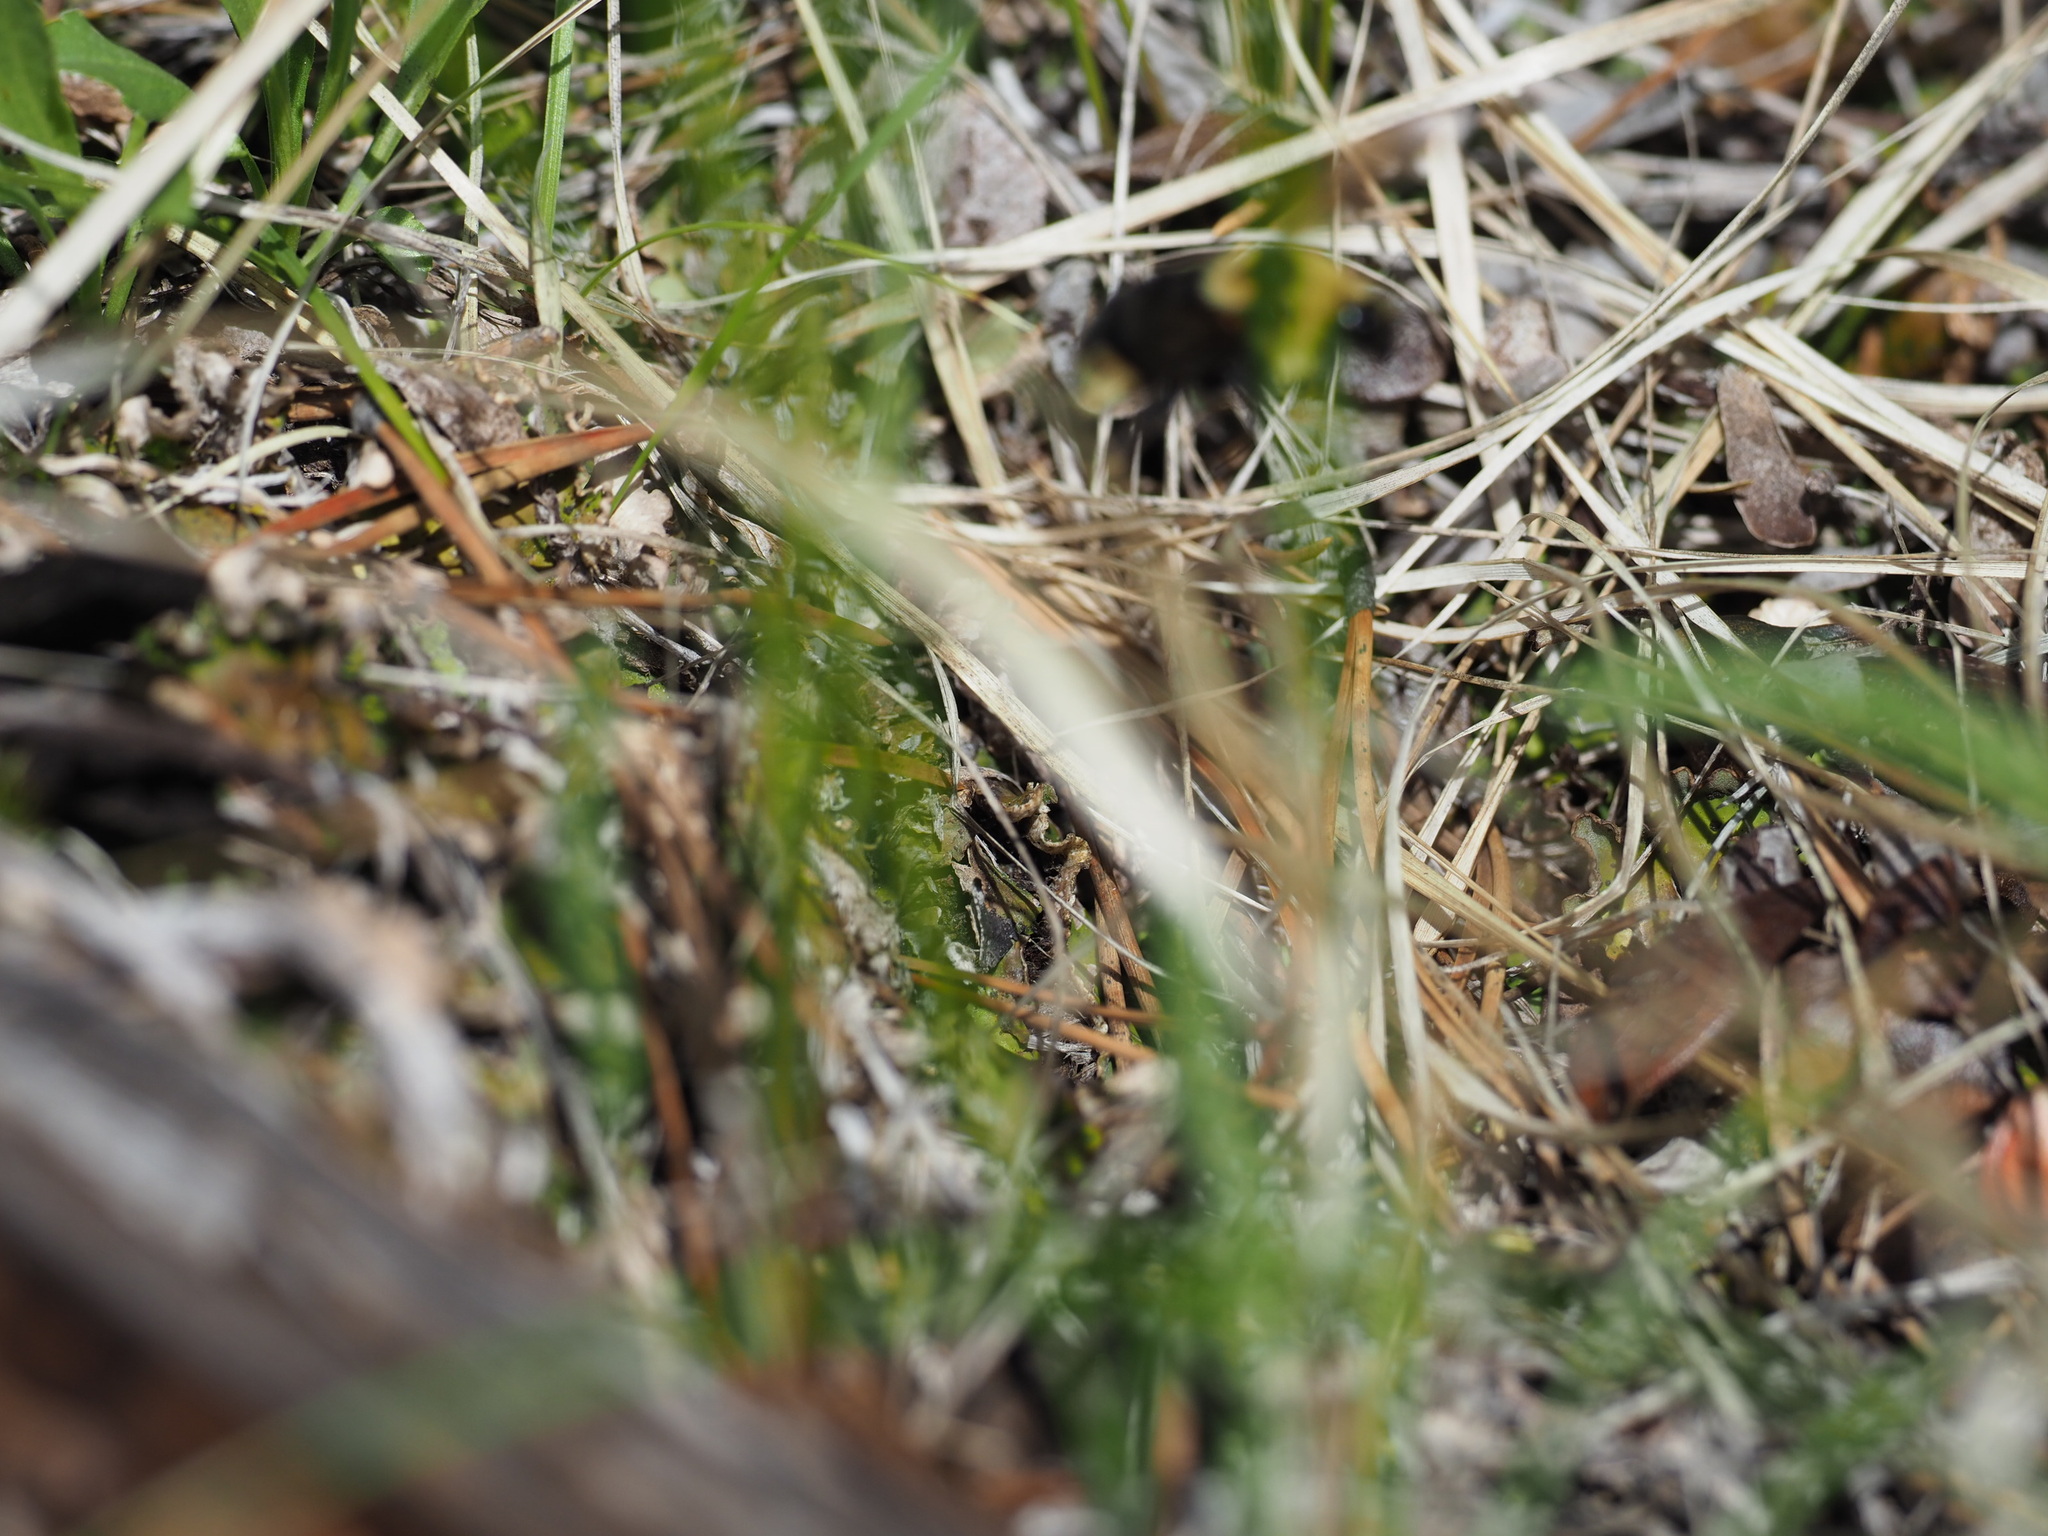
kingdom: Animalia
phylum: Arthropoda
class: Insecta
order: Hymenoptera
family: Apidae
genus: Bombus
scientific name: Bombus insularis
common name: Indiscriminate cuckoo bumble bee
